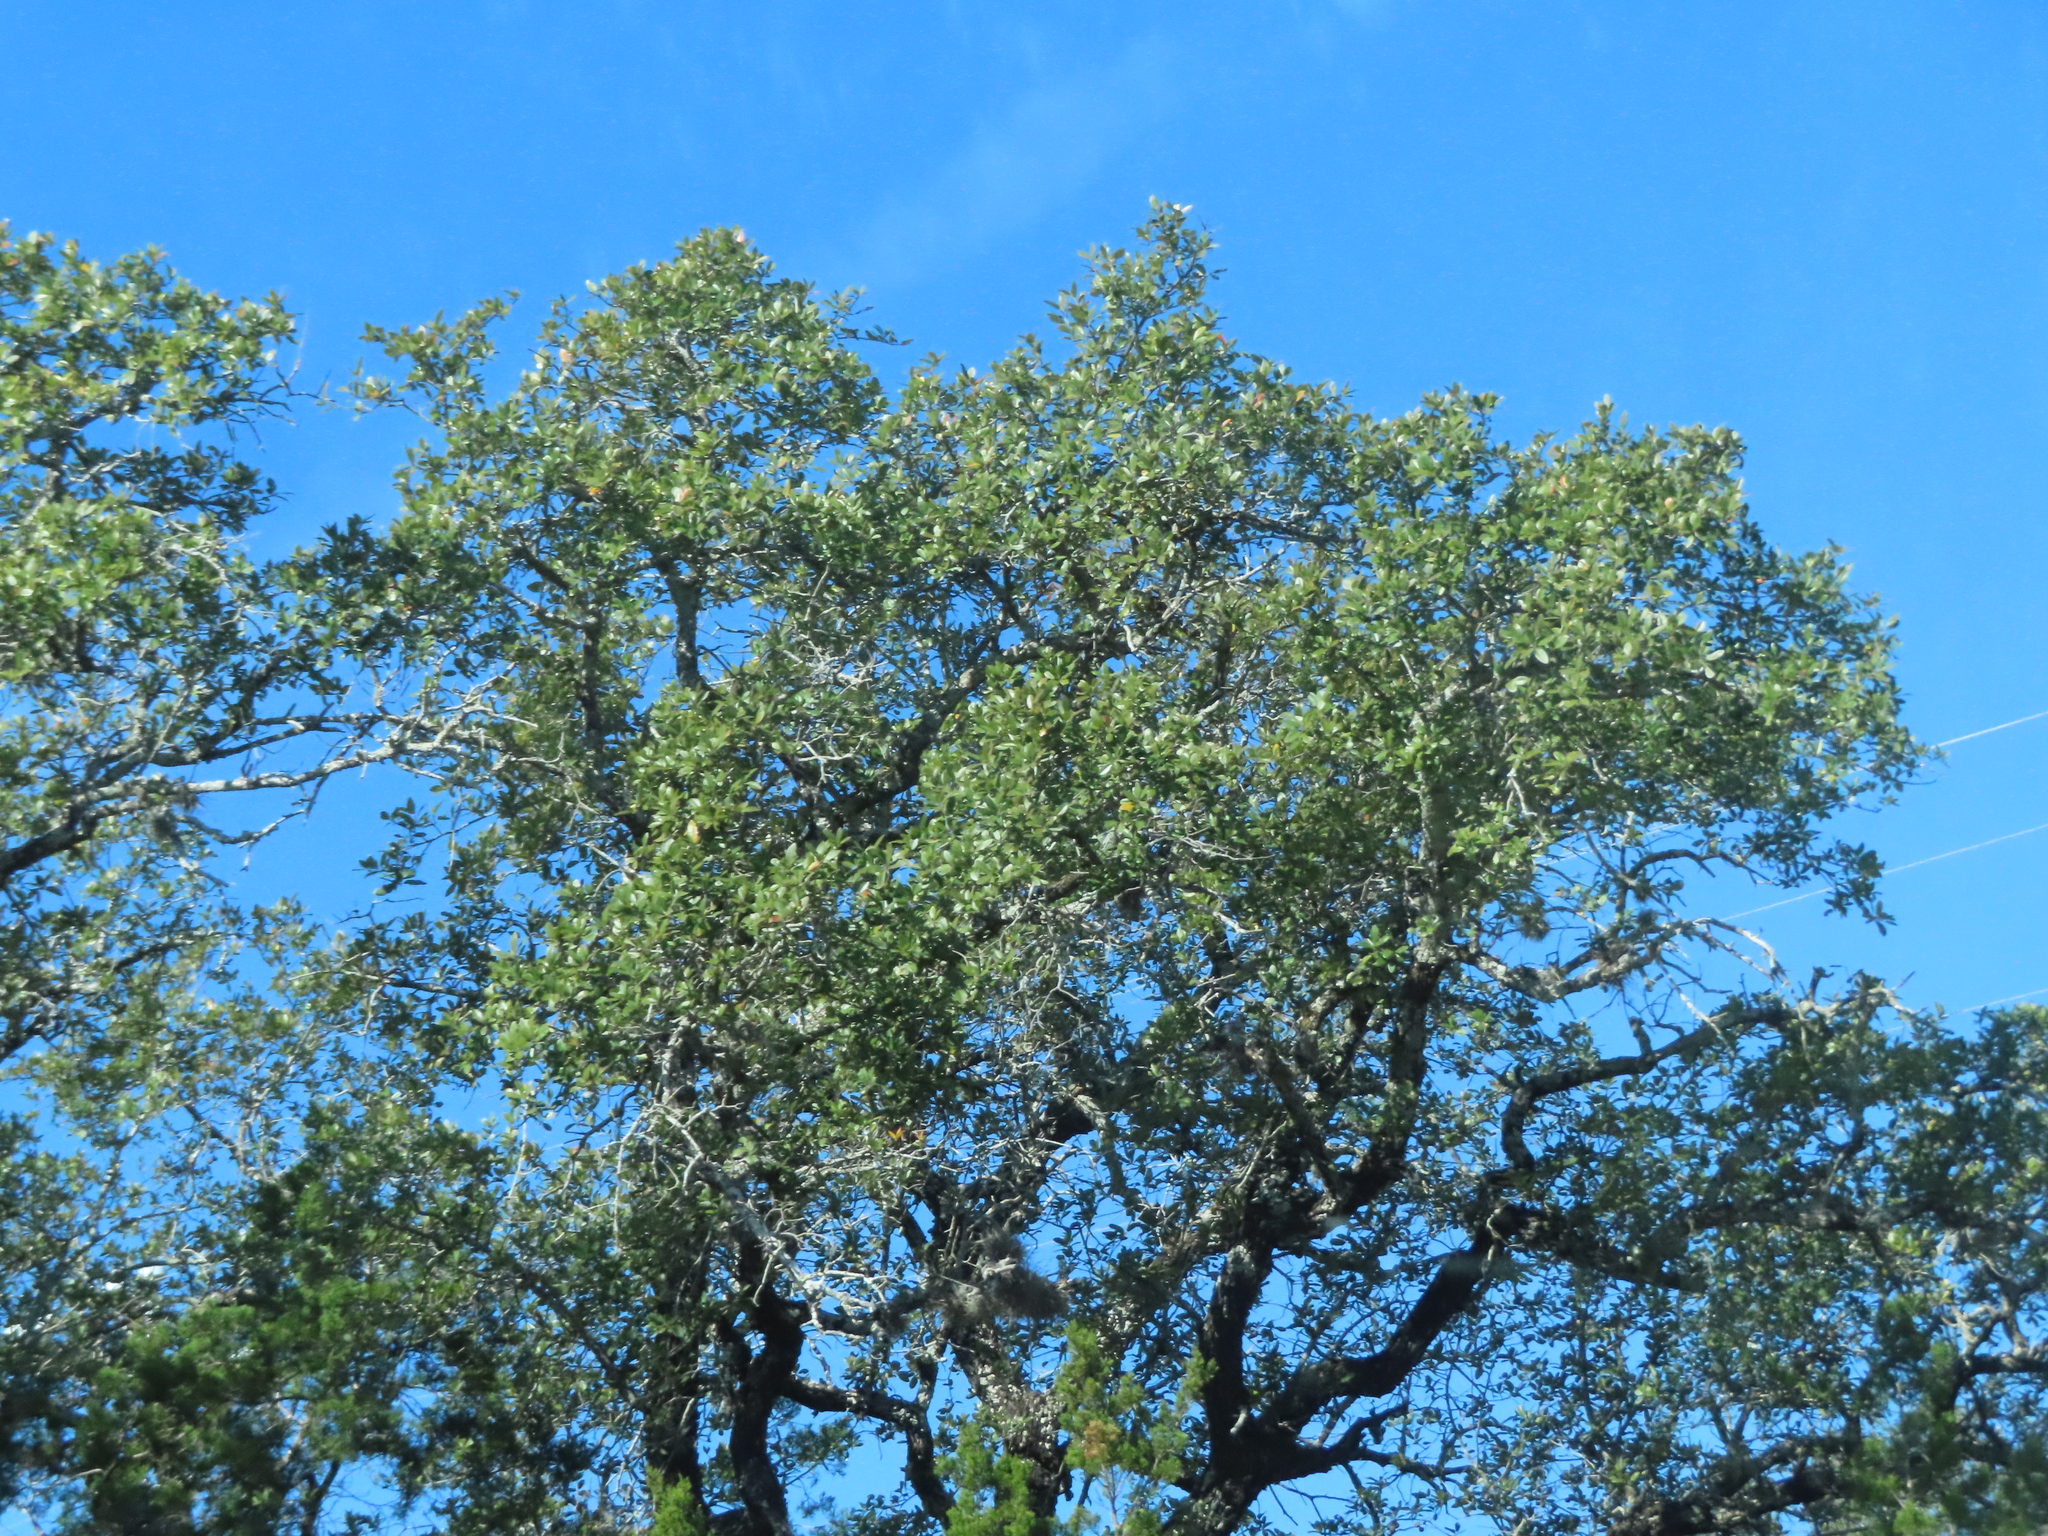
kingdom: Plantae
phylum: Tracheophyta
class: Magnoliopsida
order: Fagales
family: Fagaceae
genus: Quercus
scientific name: Quercus fusiformis
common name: Texas live oak
